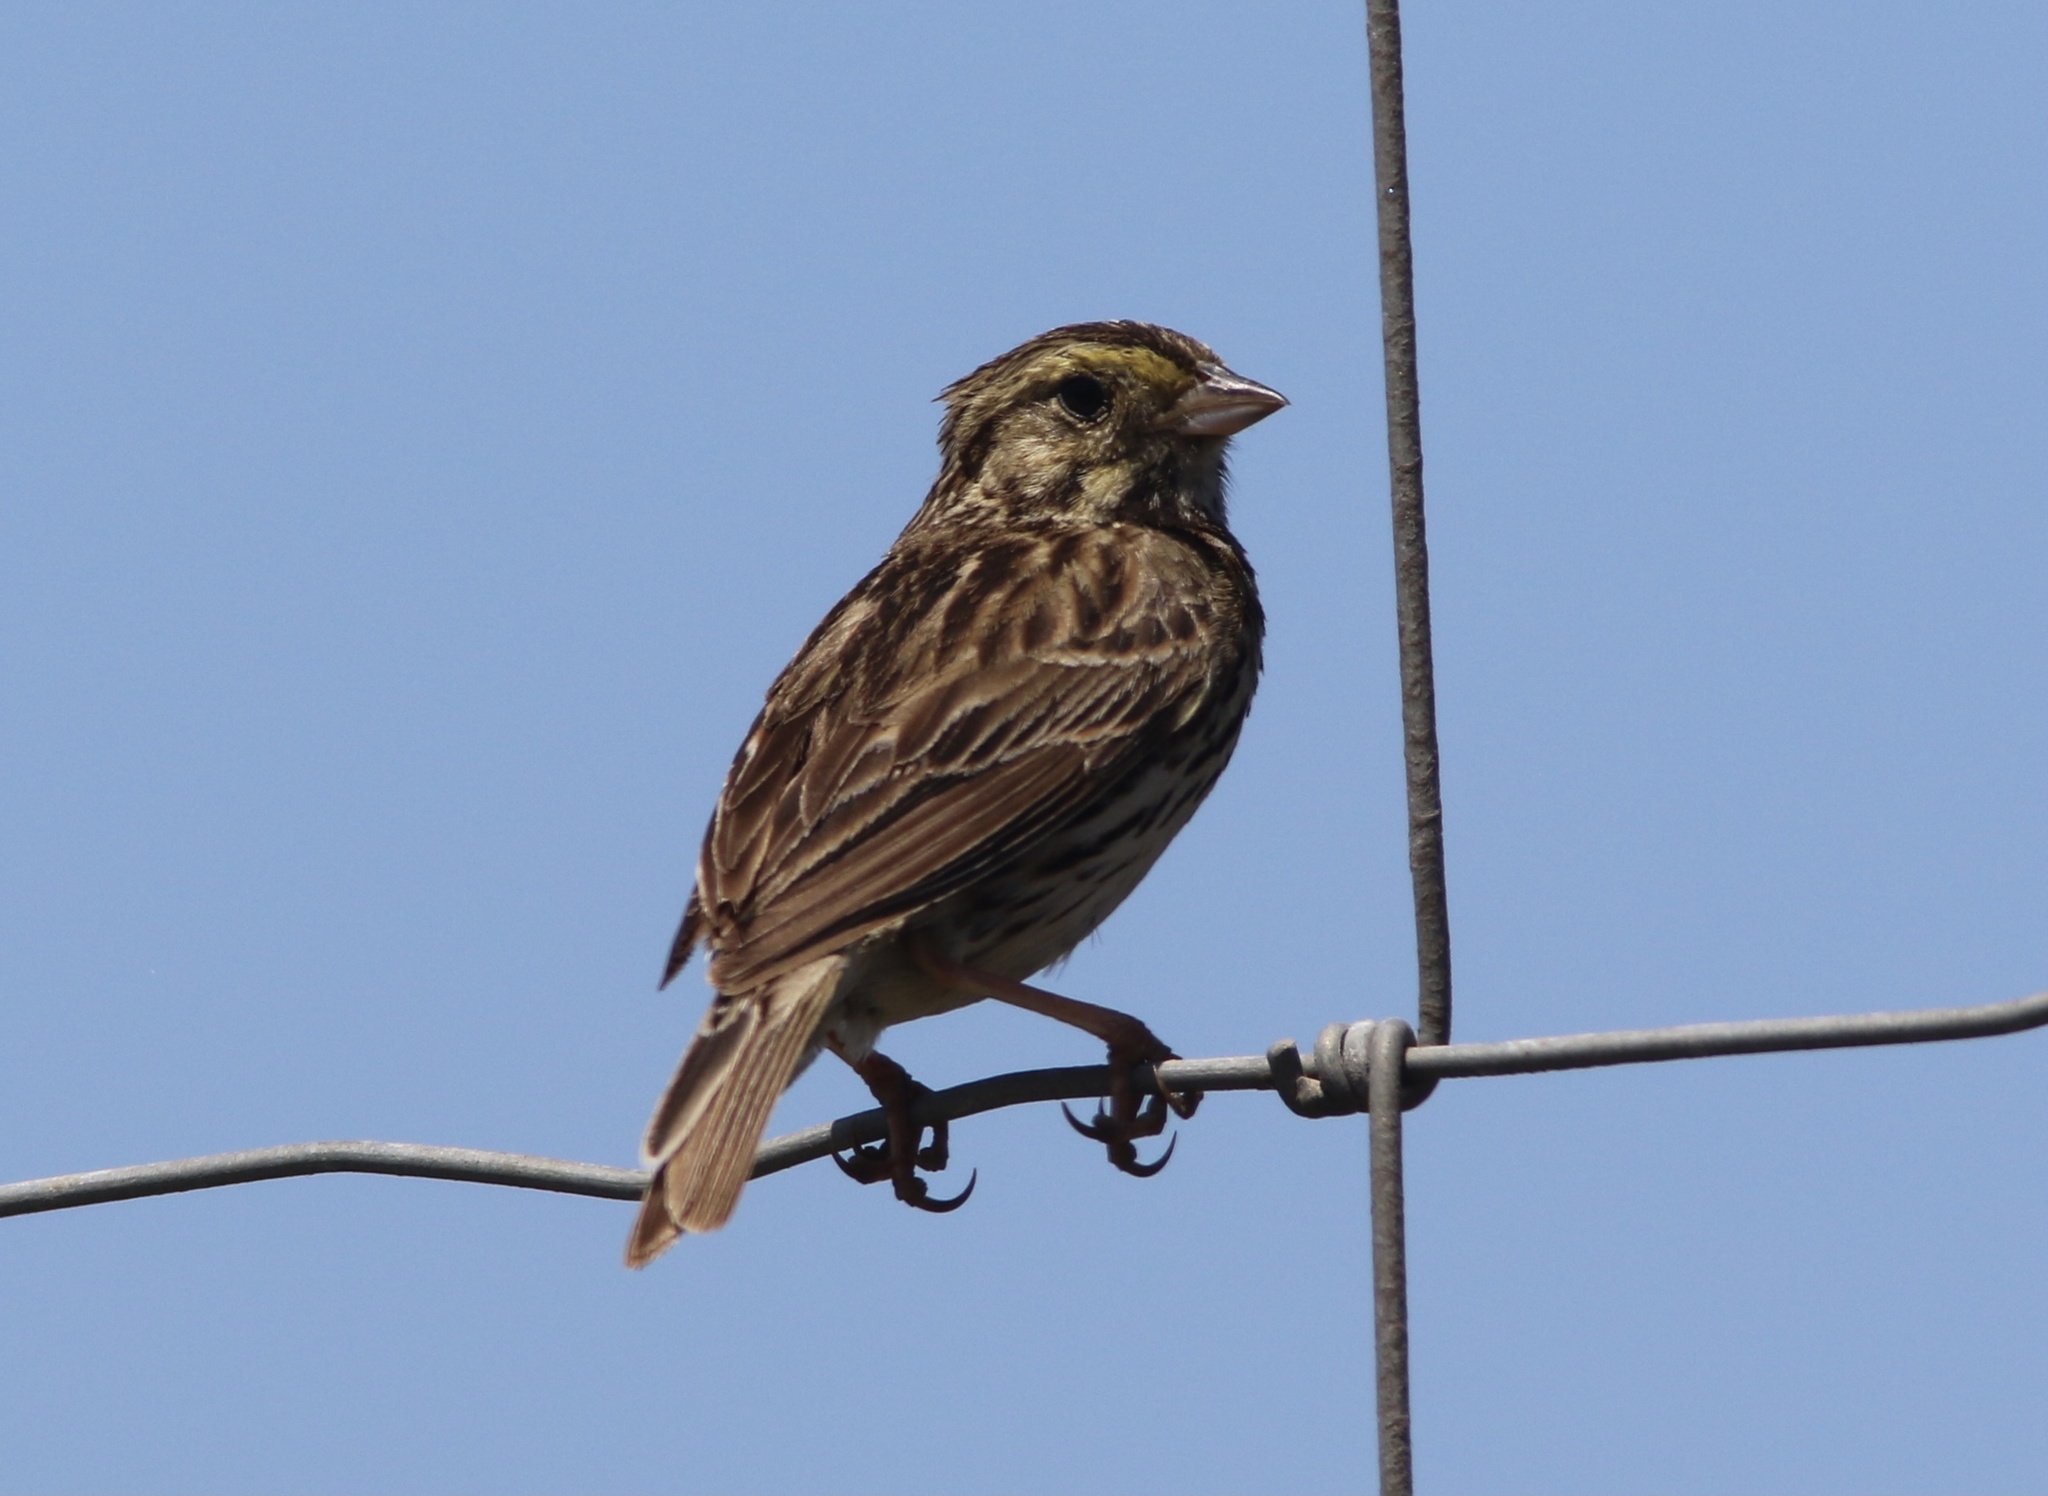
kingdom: Animalia
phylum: Chordata
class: Aves
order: Passeriformes
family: Passerellidae
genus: Passerculus
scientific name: Passerculus sandwichensis
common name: Savannah sparrow
